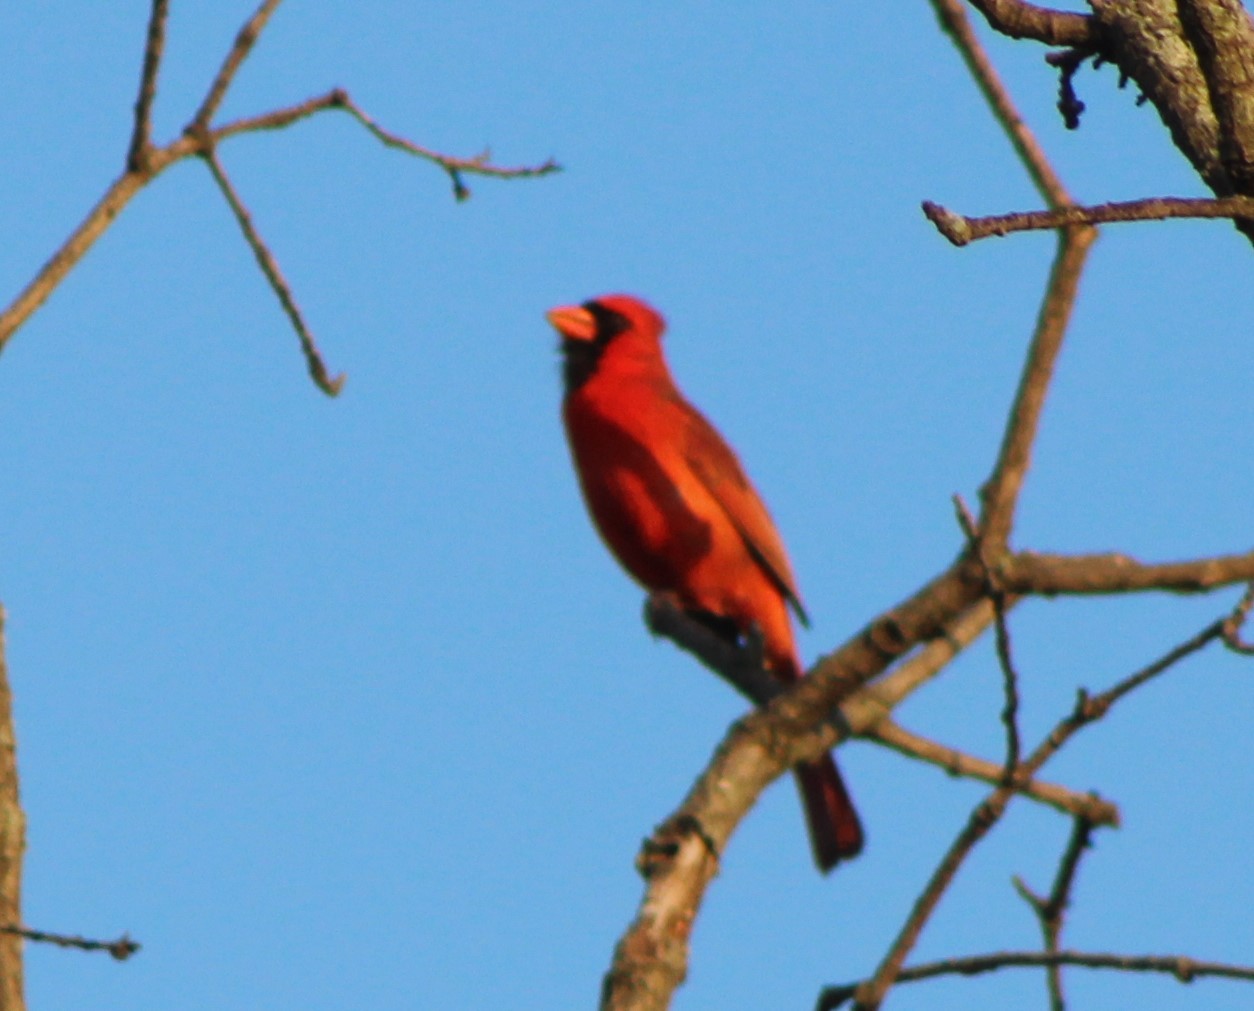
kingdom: Animalia
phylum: Chordata
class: Aves
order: Passeriformes
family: Cardinalidae
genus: Cardinalis
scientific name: Cardinalis cardinalis
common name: Northern cardinal
